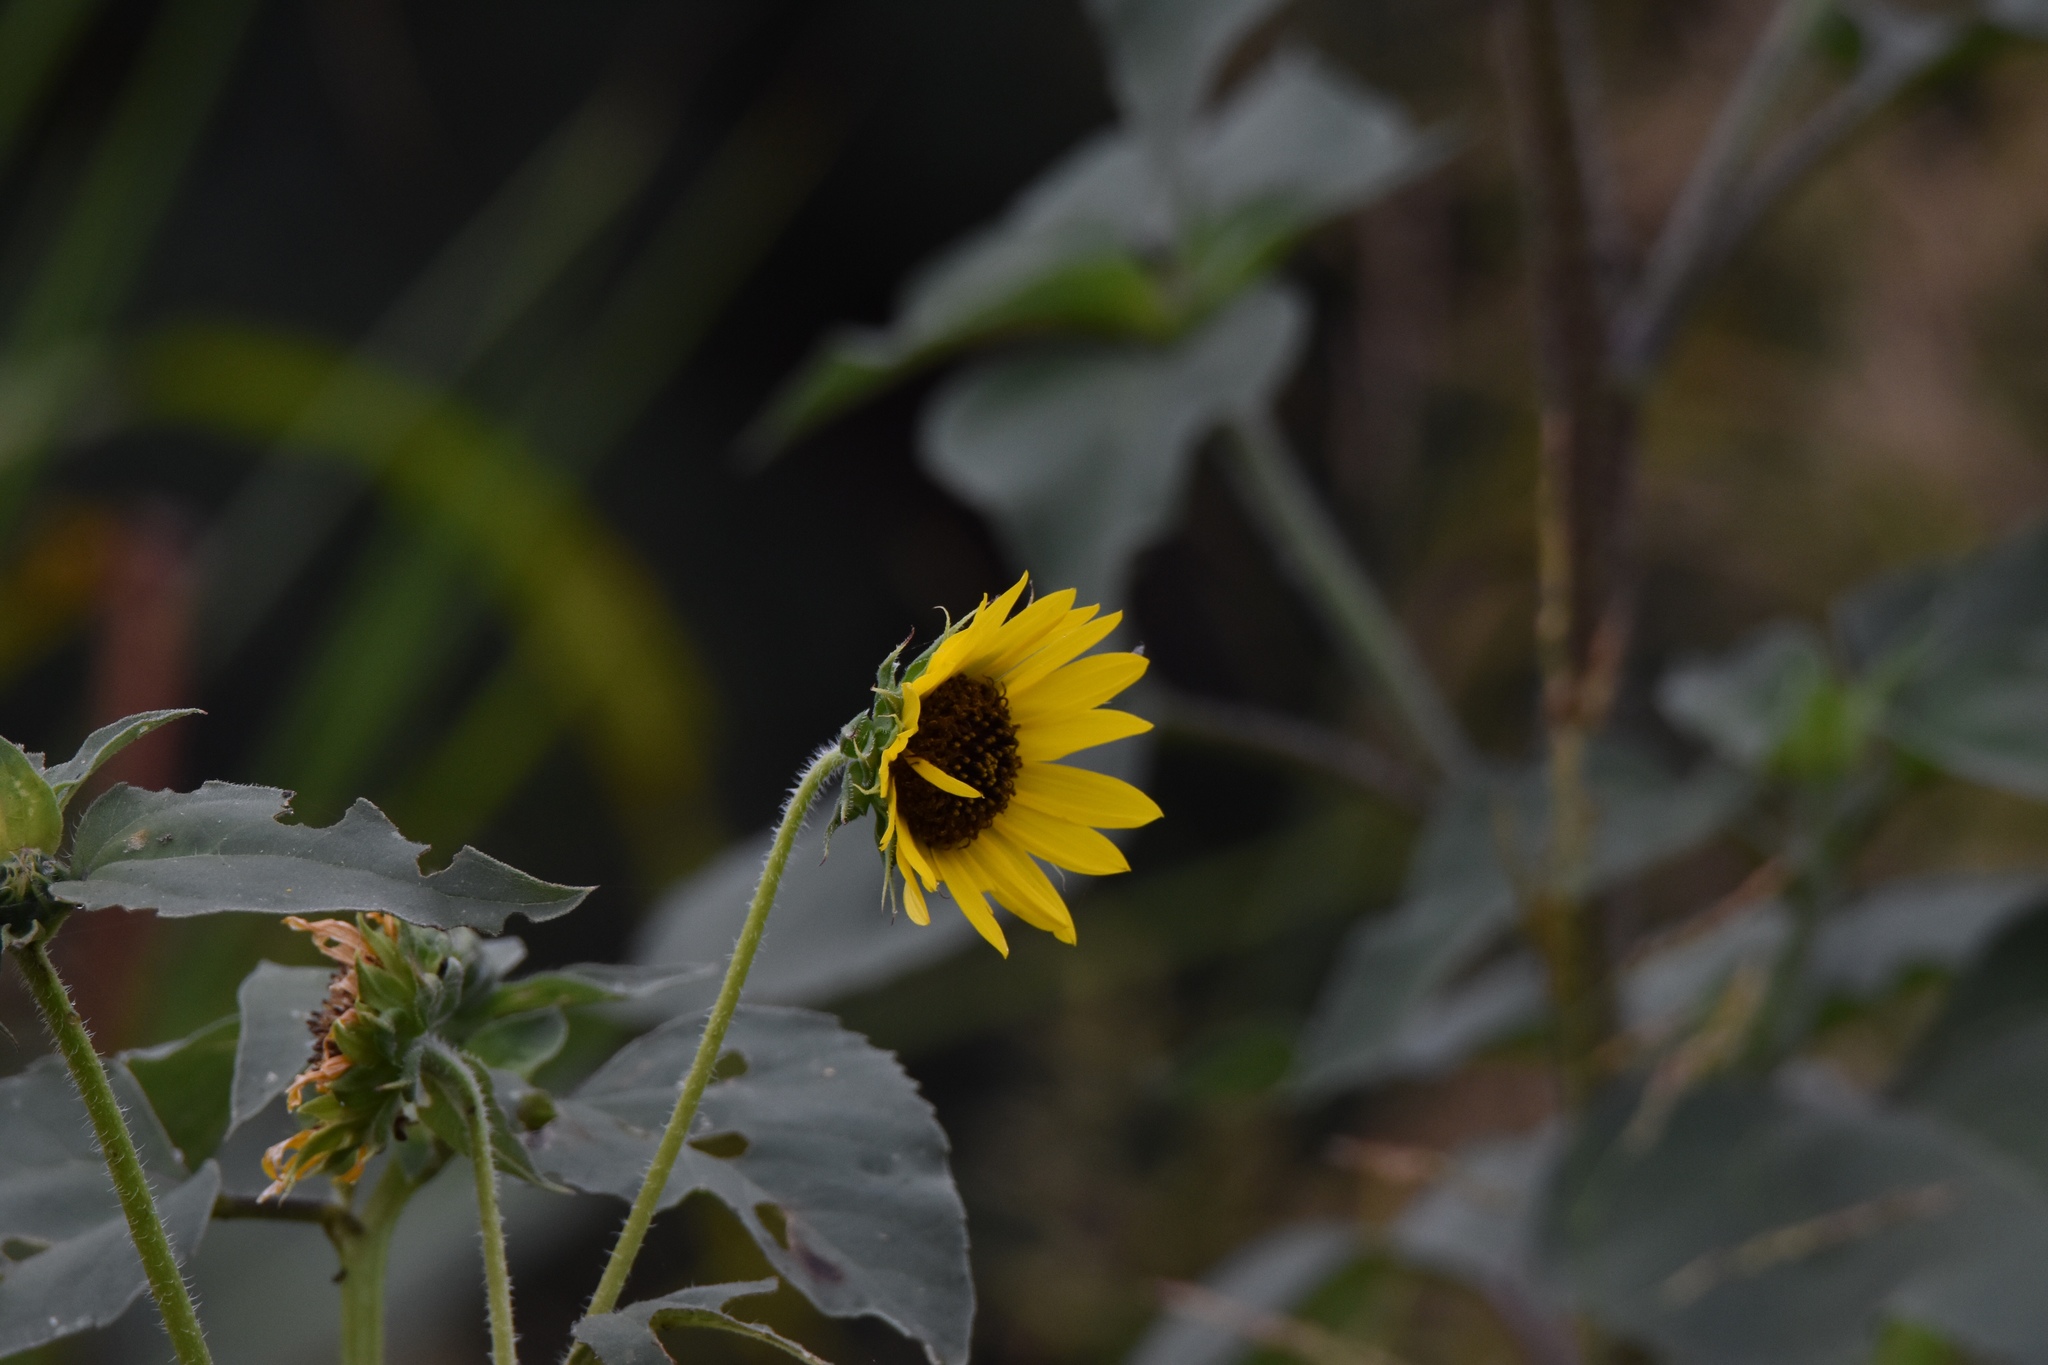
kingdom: Plantae
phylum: Tracheophyta
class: Magnoliopsida
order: Asterales
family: Asteraceae
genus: Helianthus
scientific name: Helianthus annuus
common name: Sunflower
